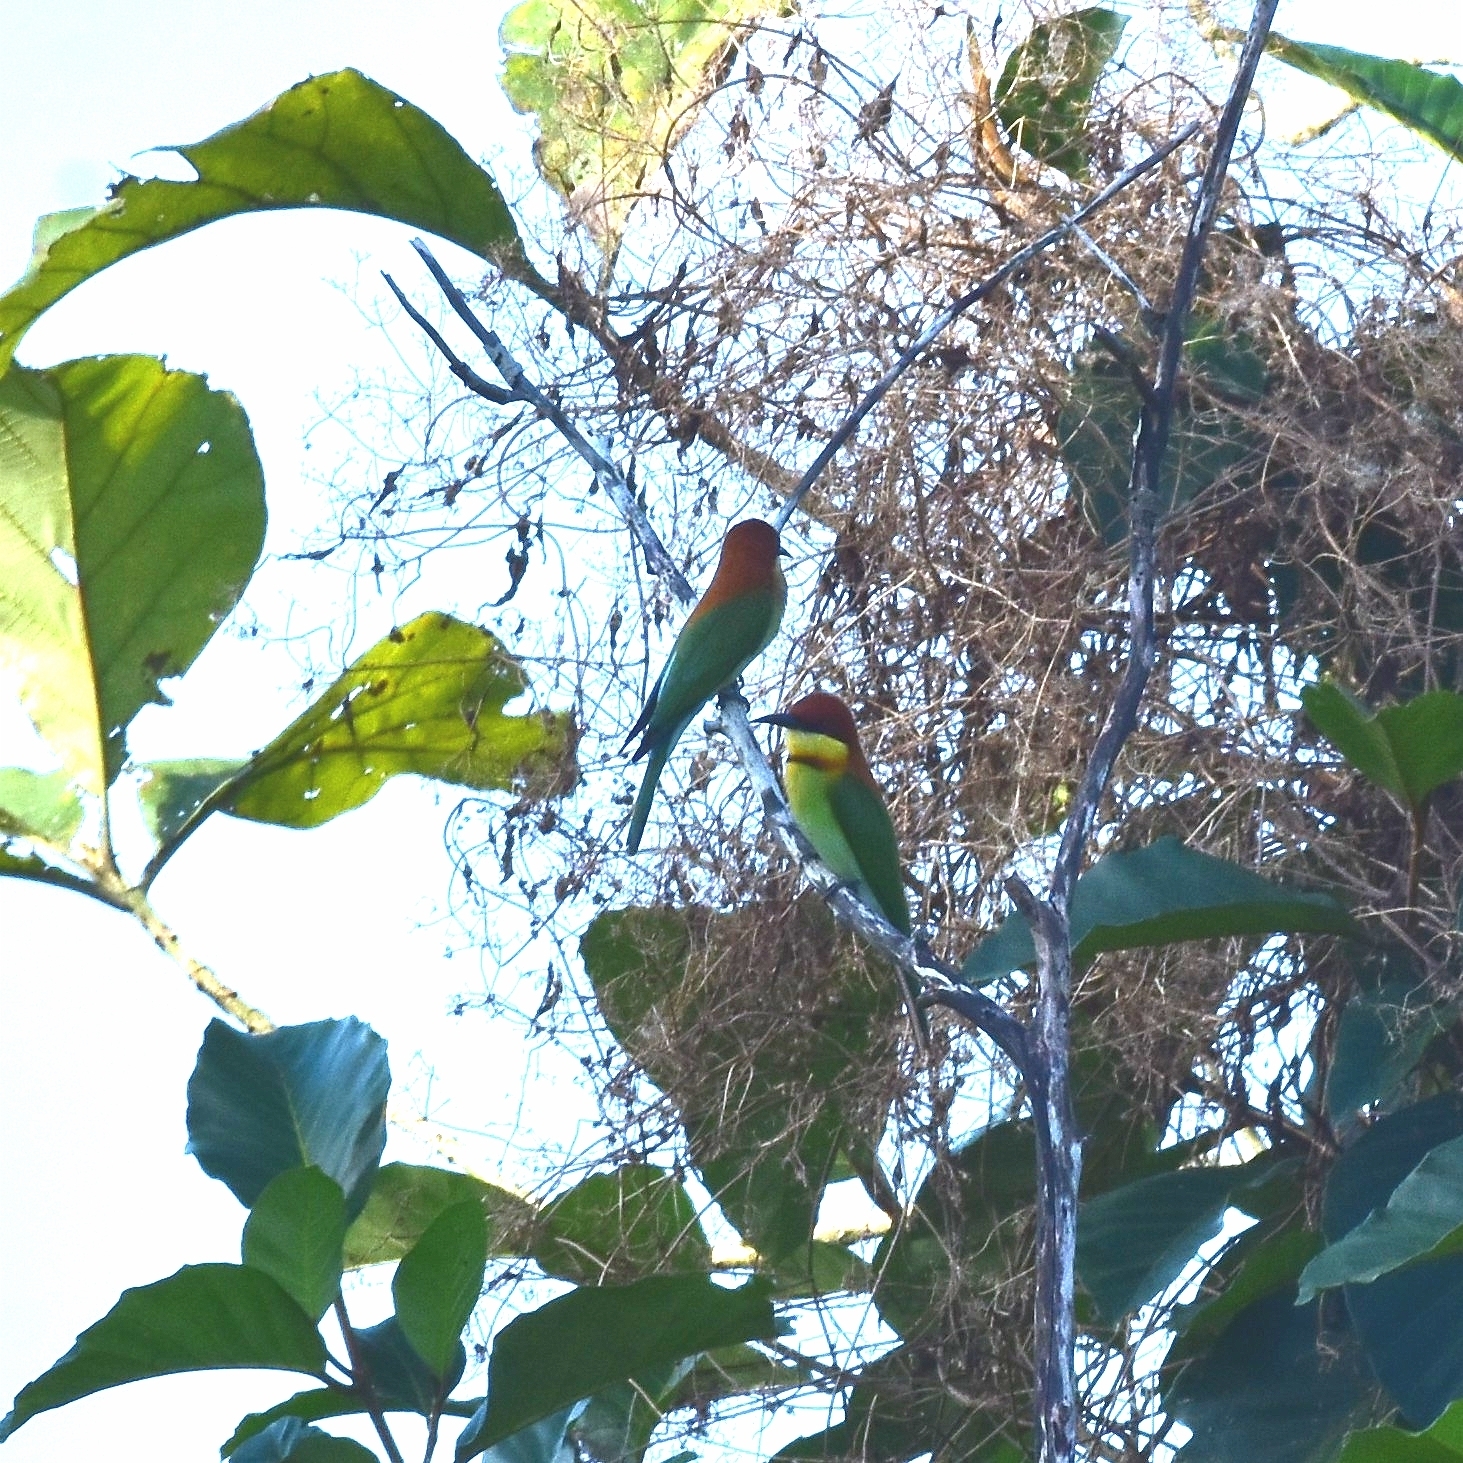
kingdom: Animalia
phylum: Chordata
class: Aves
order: Coraciiformes
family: Meropidae
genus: Merops
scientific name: Merops leschenaulti
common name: Chestnut-headed bee-eater
